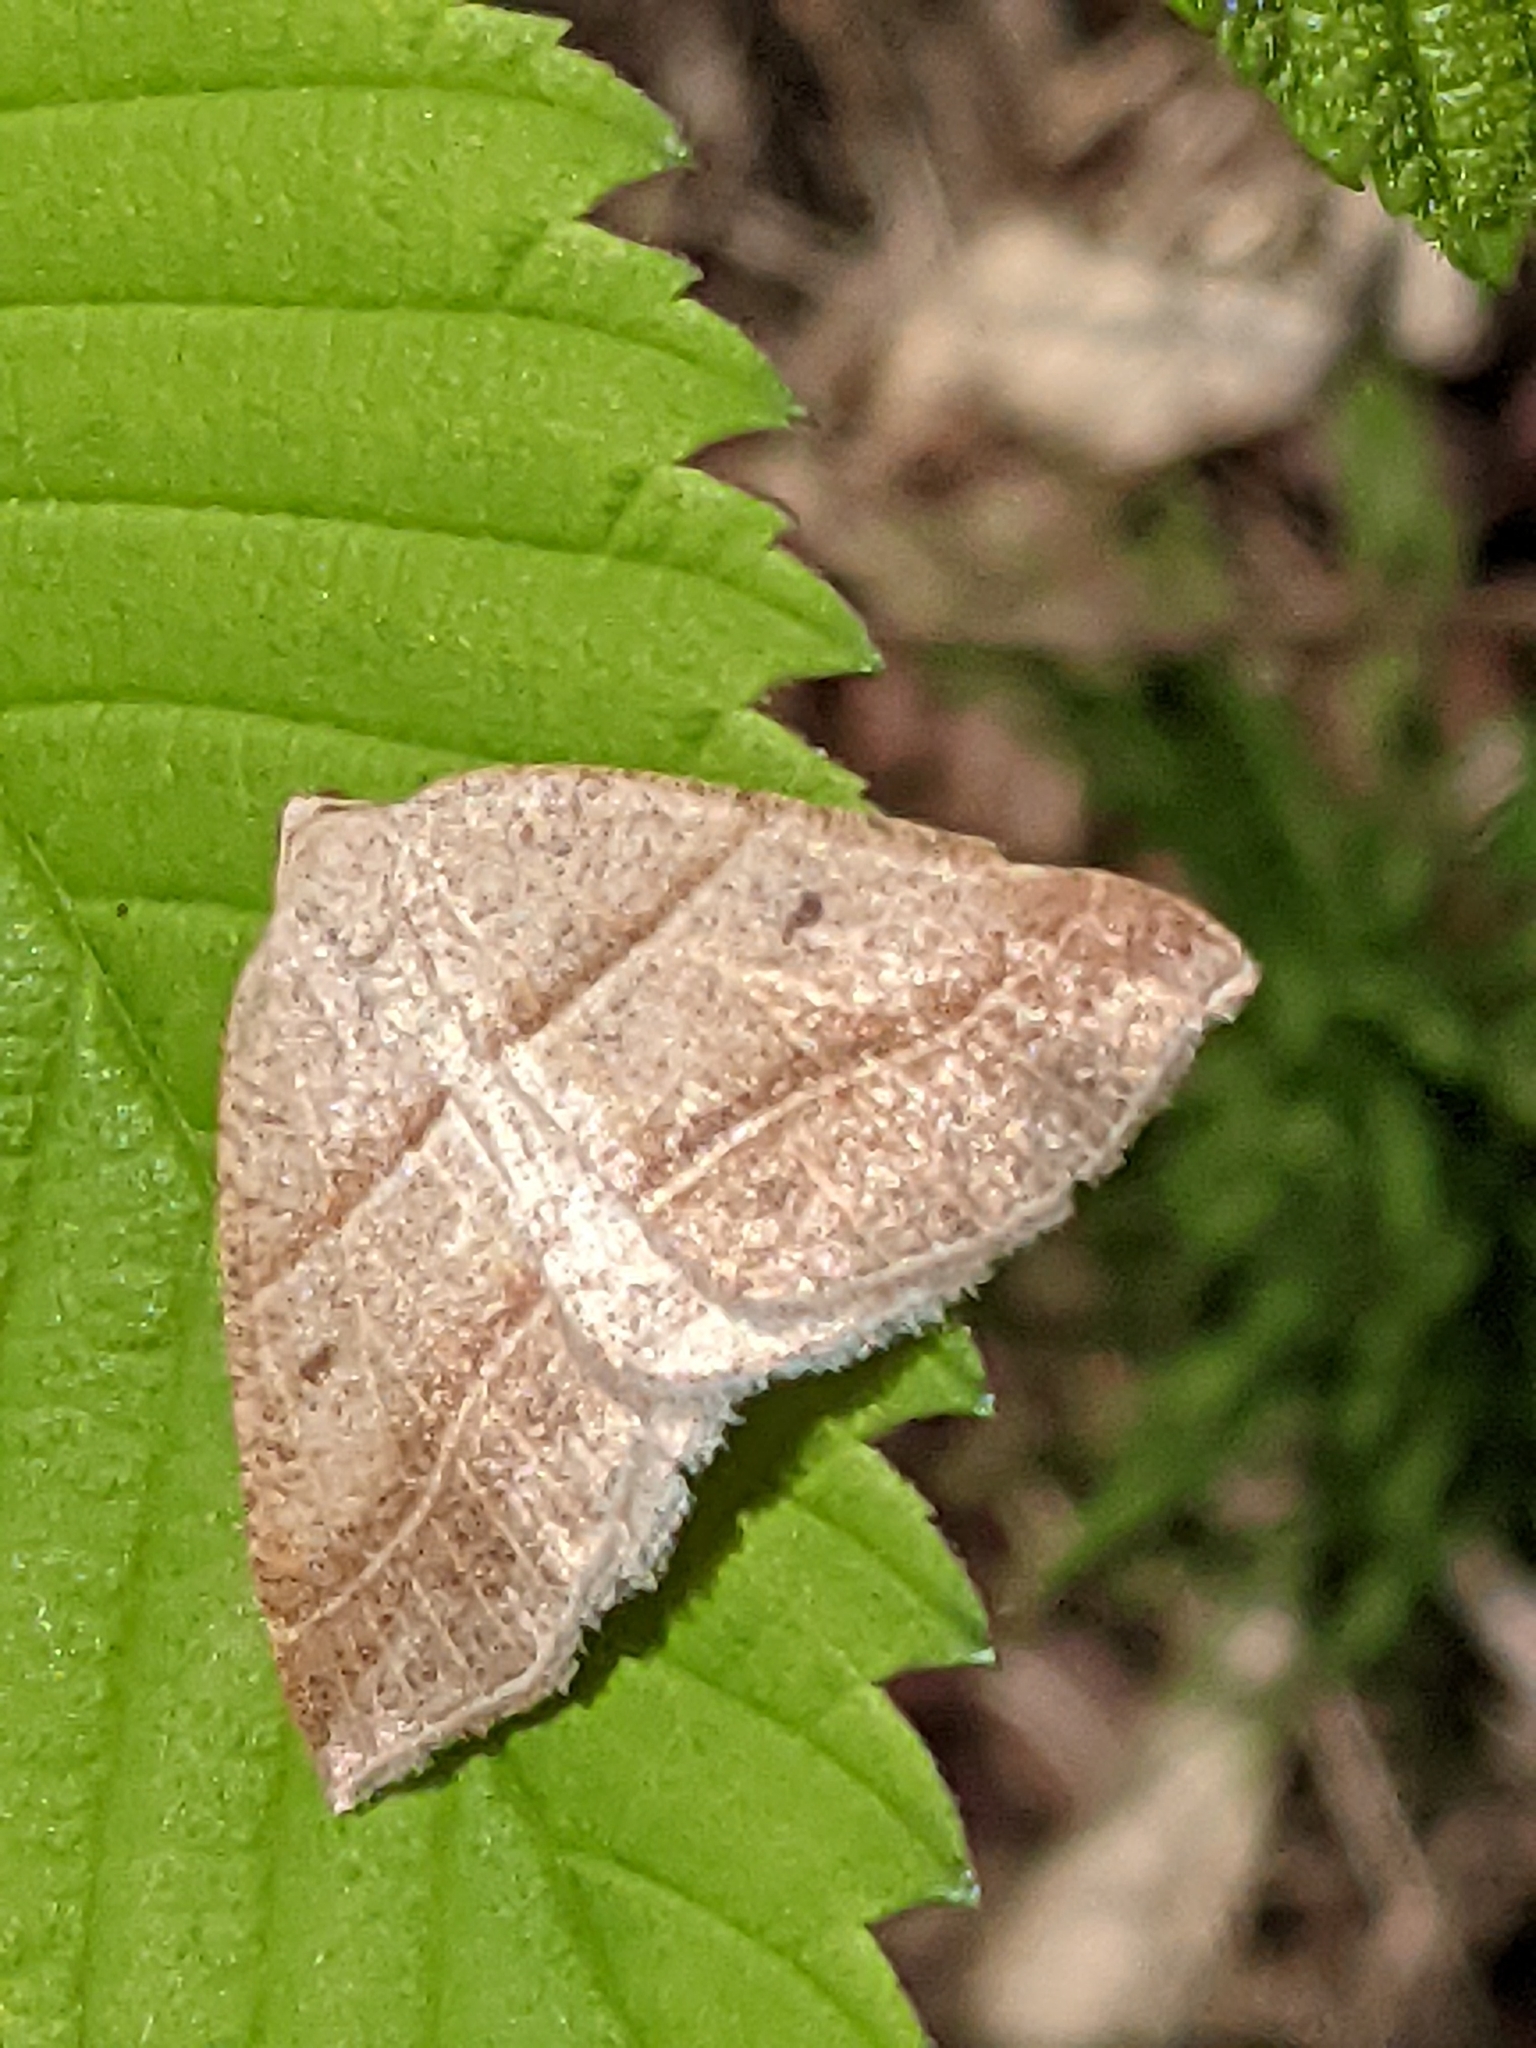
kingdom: Animalia
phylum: Arthropoda
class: Insecta
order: Lepidoptera
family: Pterophoridae
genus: Pterophorus
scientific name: Pterophorus Petrophora subaequaria
